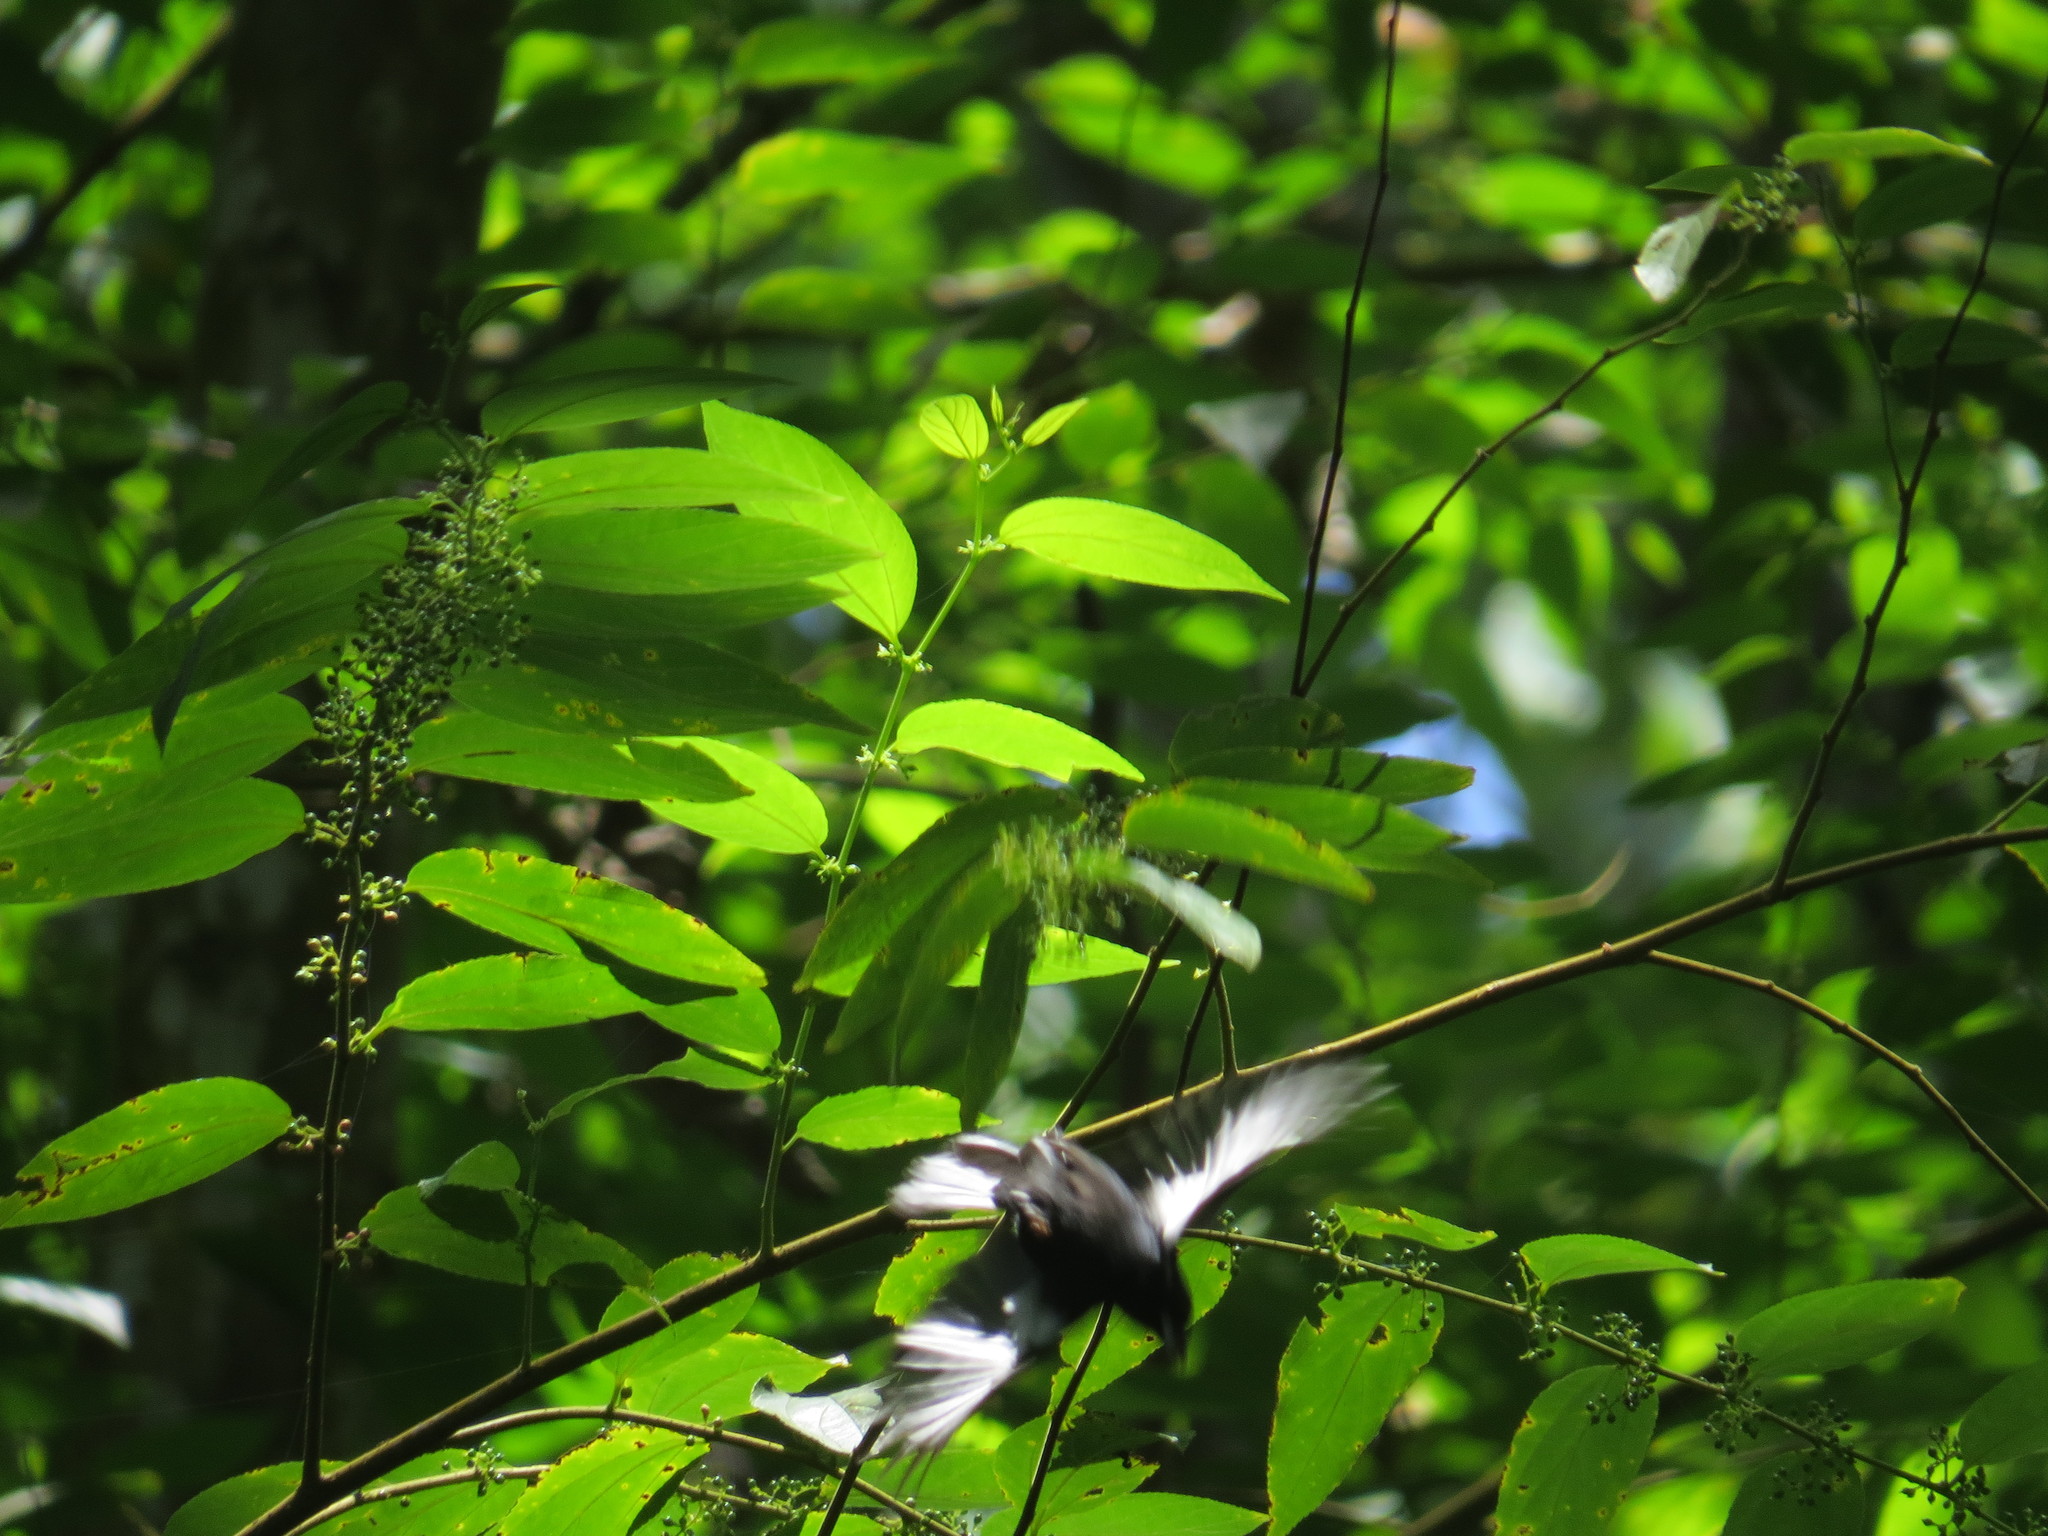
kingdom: Animalia
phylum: Chordata
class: Aves
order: Passeriformes
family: Thraupidae
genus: Tachyphonus
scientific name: Tachyphonus rufus
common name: White-lined tanager
